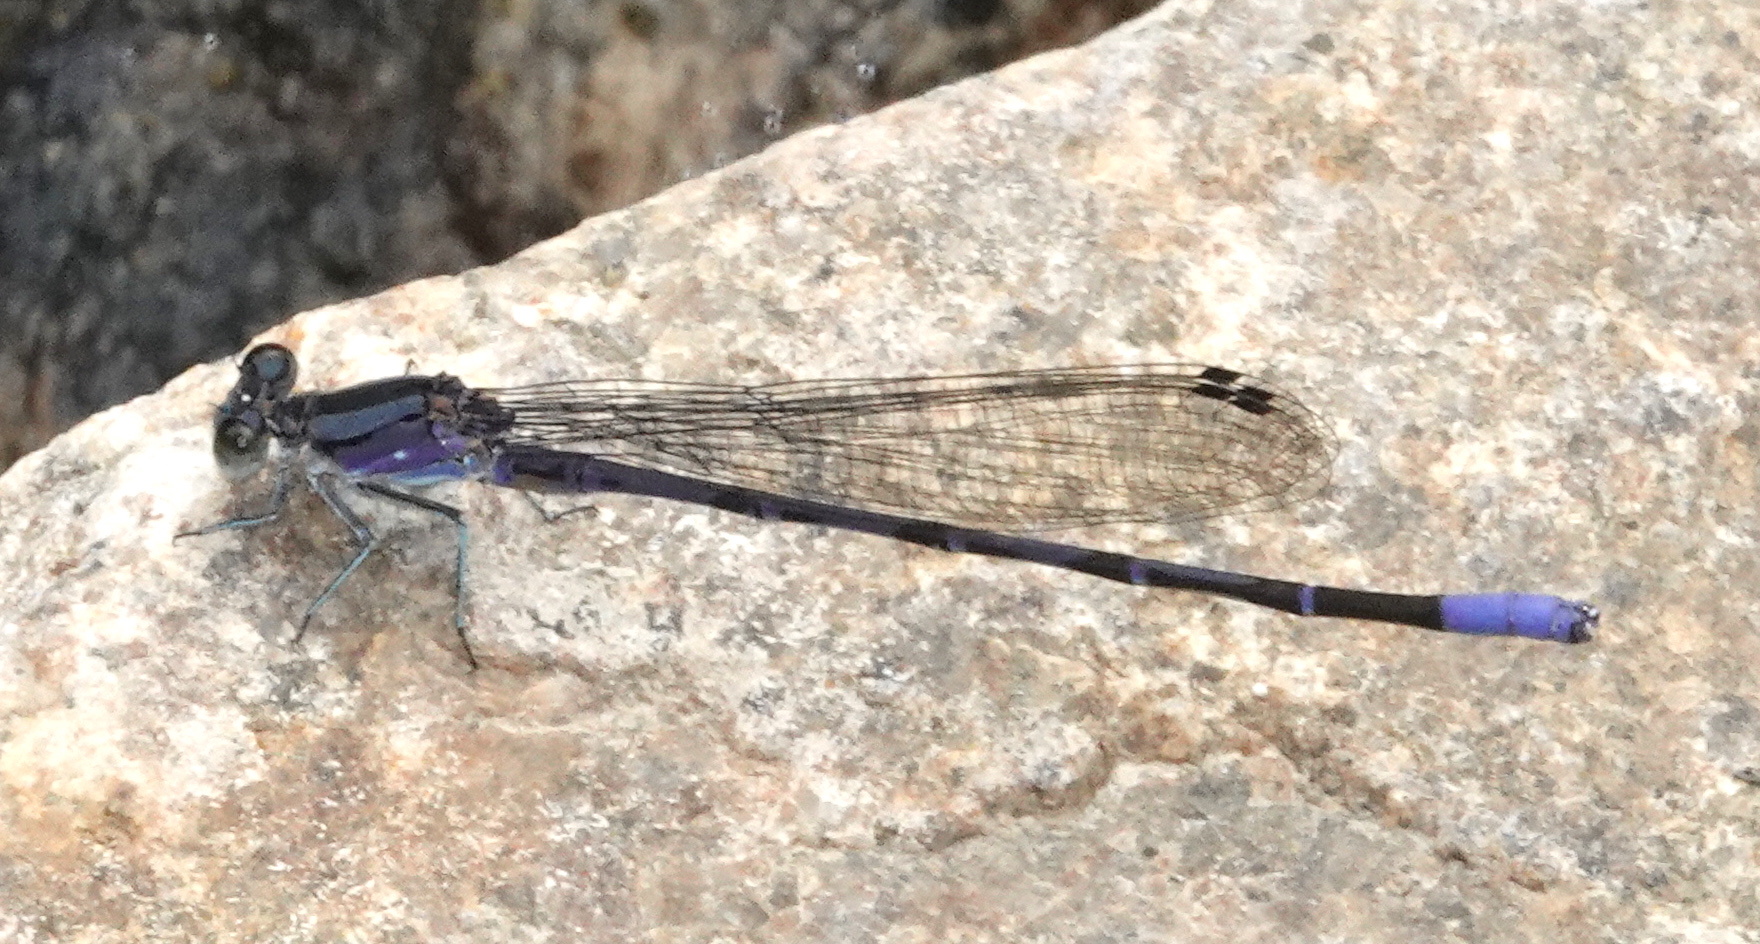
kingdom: Animalia
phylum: Arthropoda
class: Insecta
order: Odonata
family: Coenagrionidae
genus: Argia
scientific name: Argia funebris
